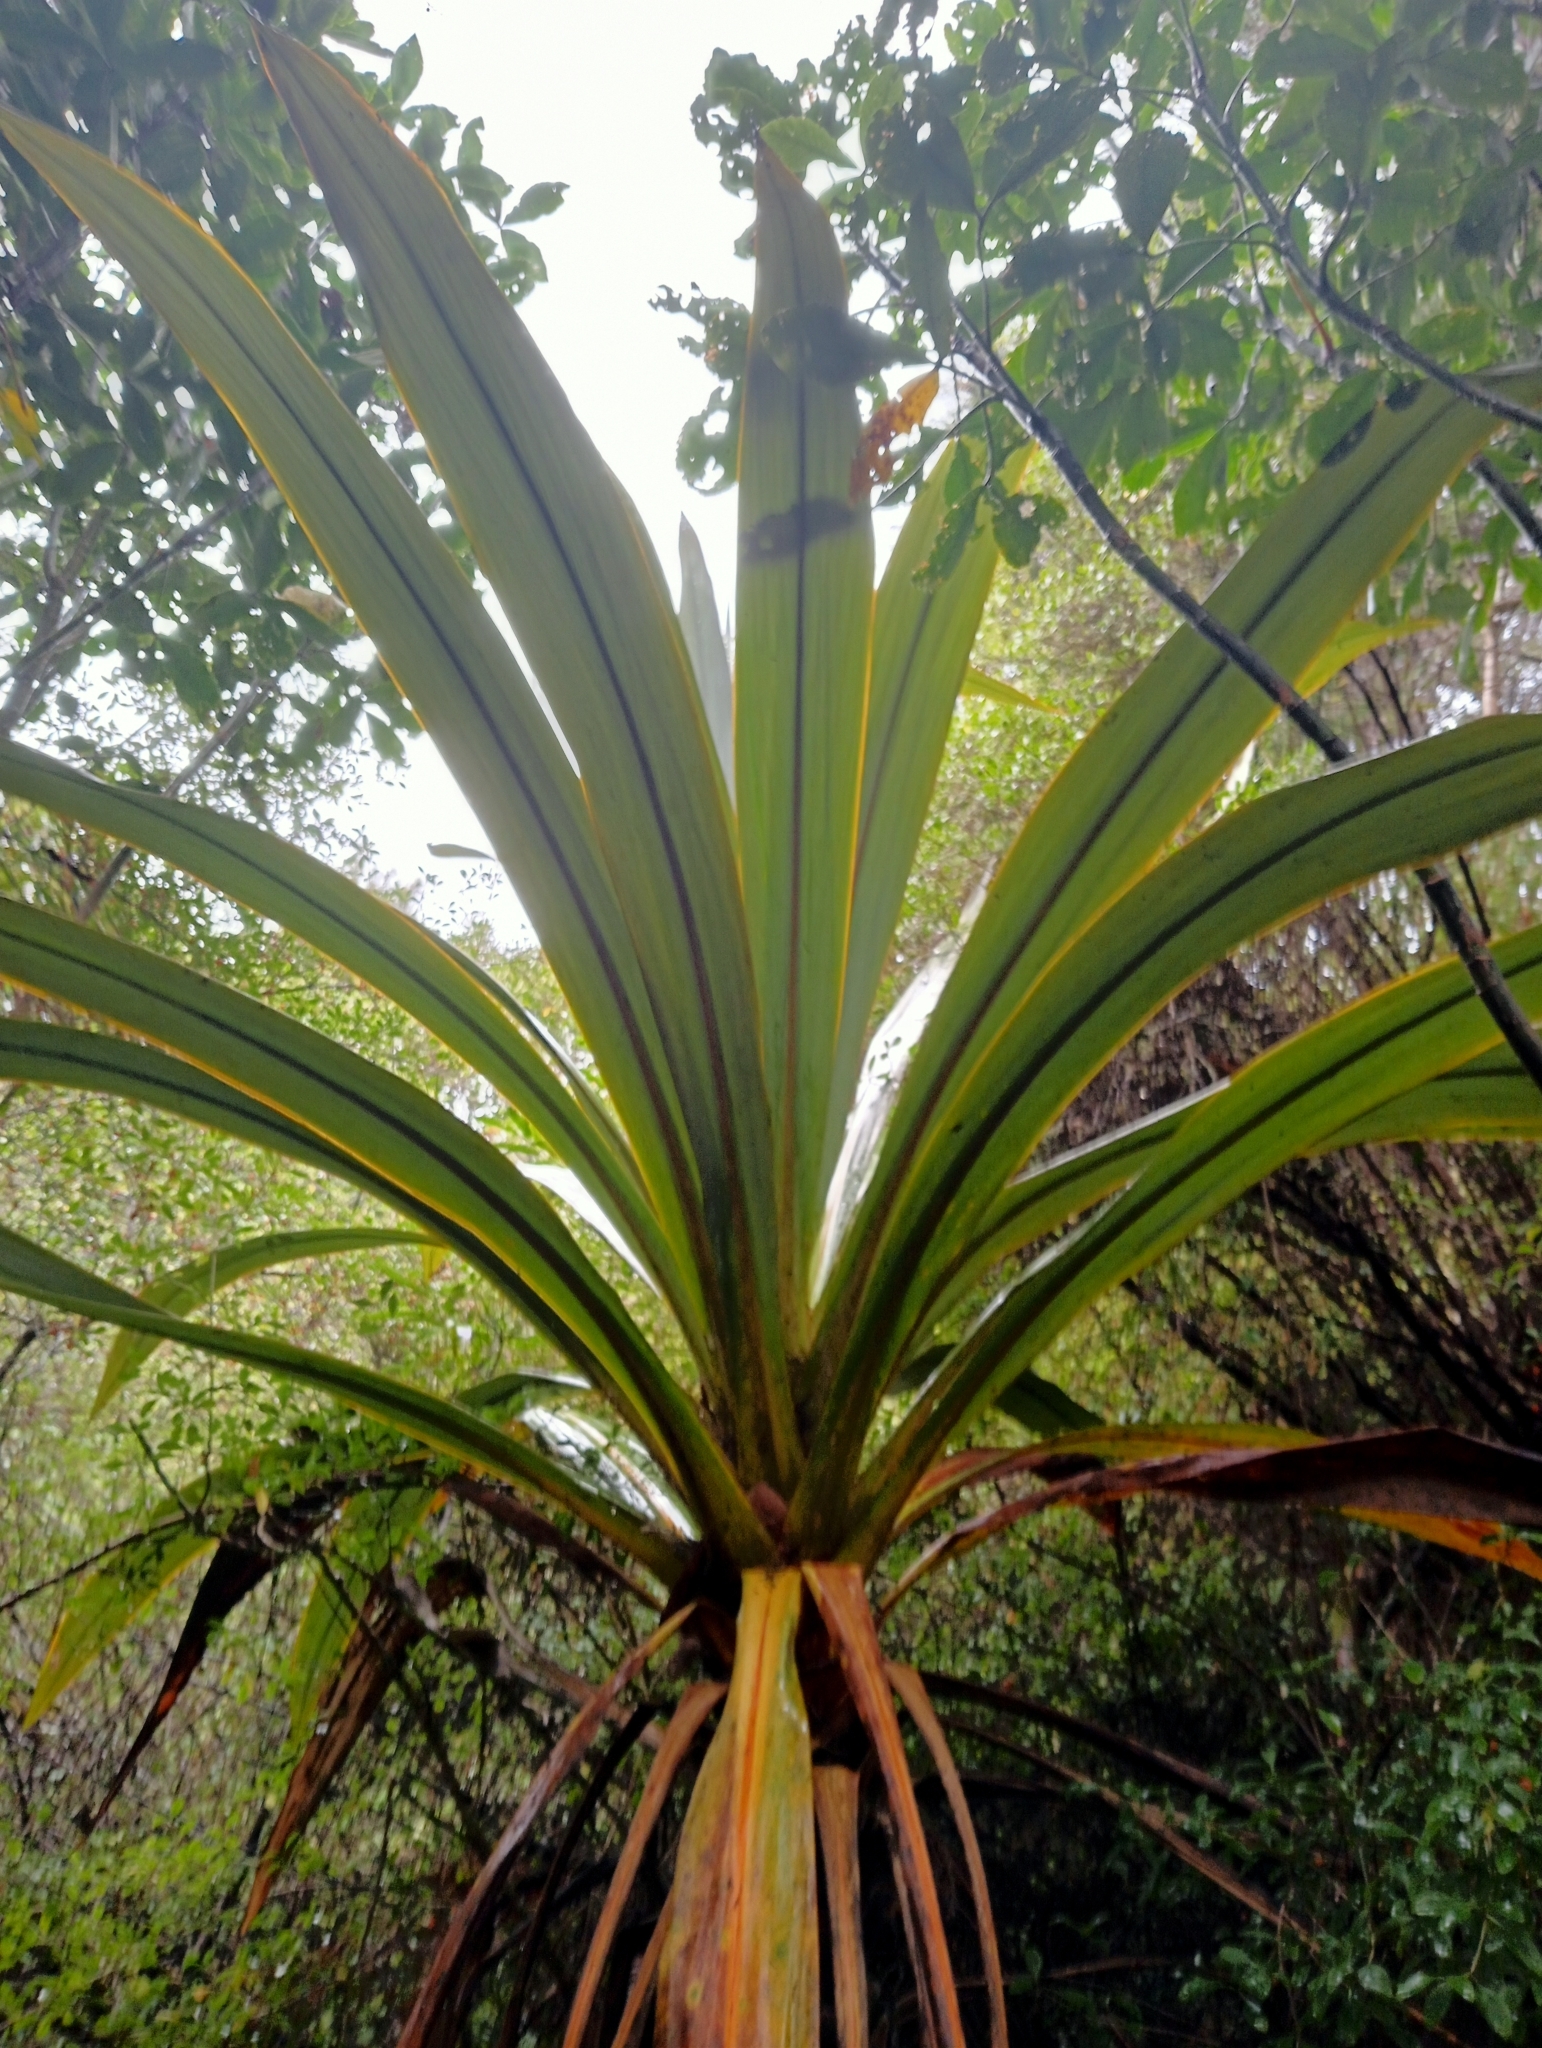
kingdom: Plantae
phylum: Tracheophyta
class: Liliopsida
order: Asparagales
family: Asparagaceae
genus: Cordyline
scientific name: Cordyline indivisa
